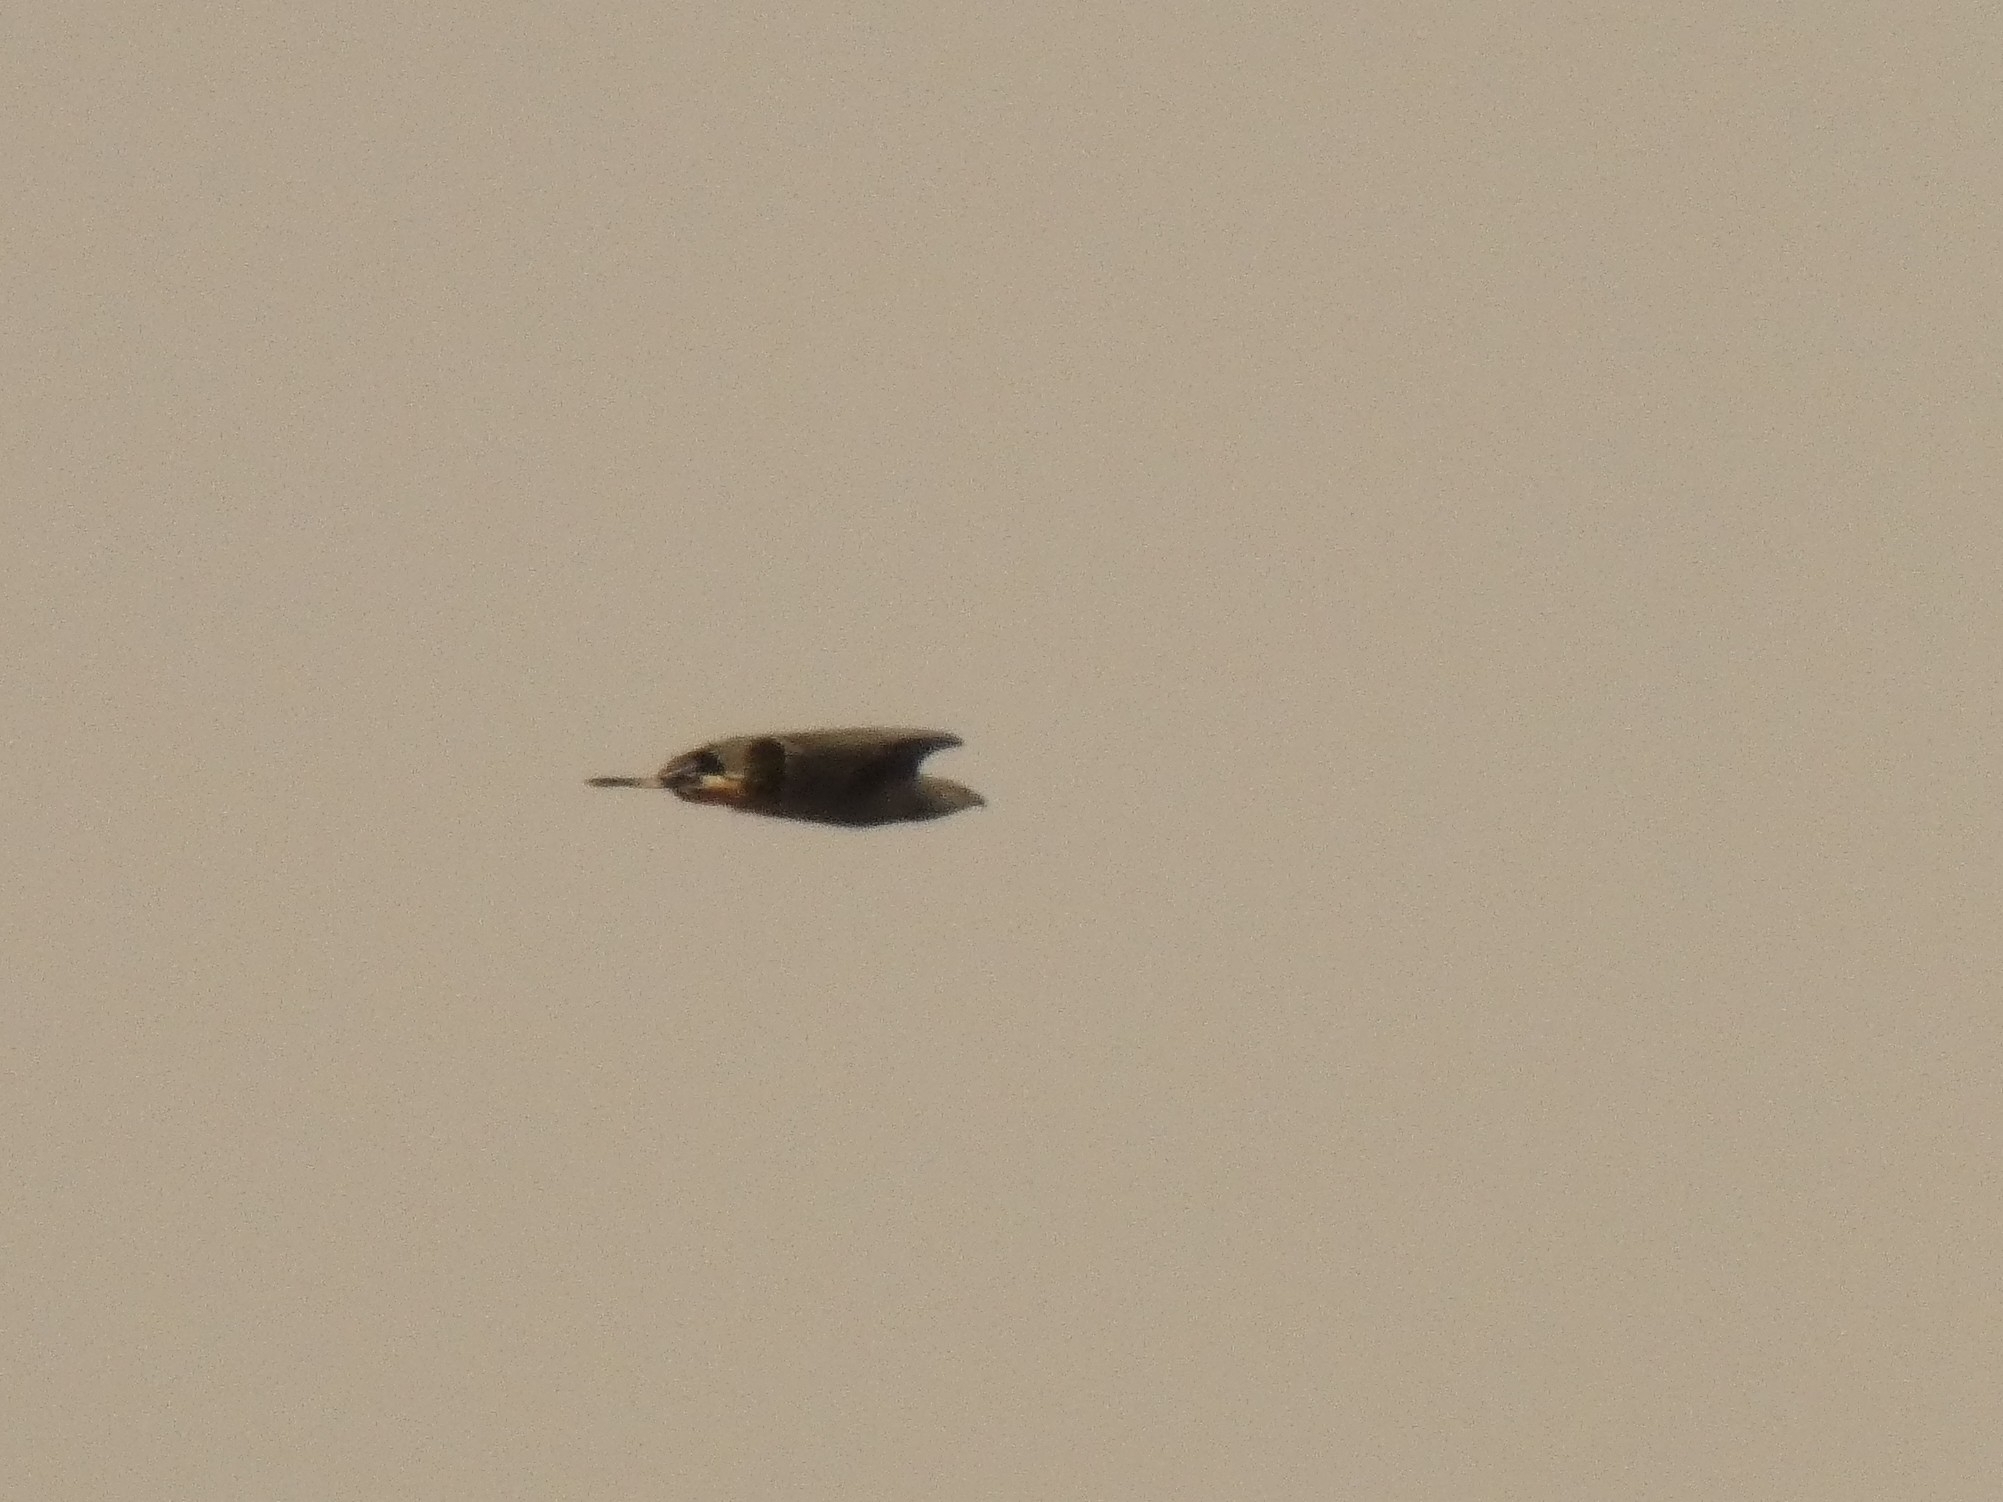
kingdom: Animalia
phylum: Chordata
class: Aves
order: Accipitriformes
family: Accipitridae
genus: Geranospiza
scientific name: Geranospiza caerulescens
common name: Crane hawk
